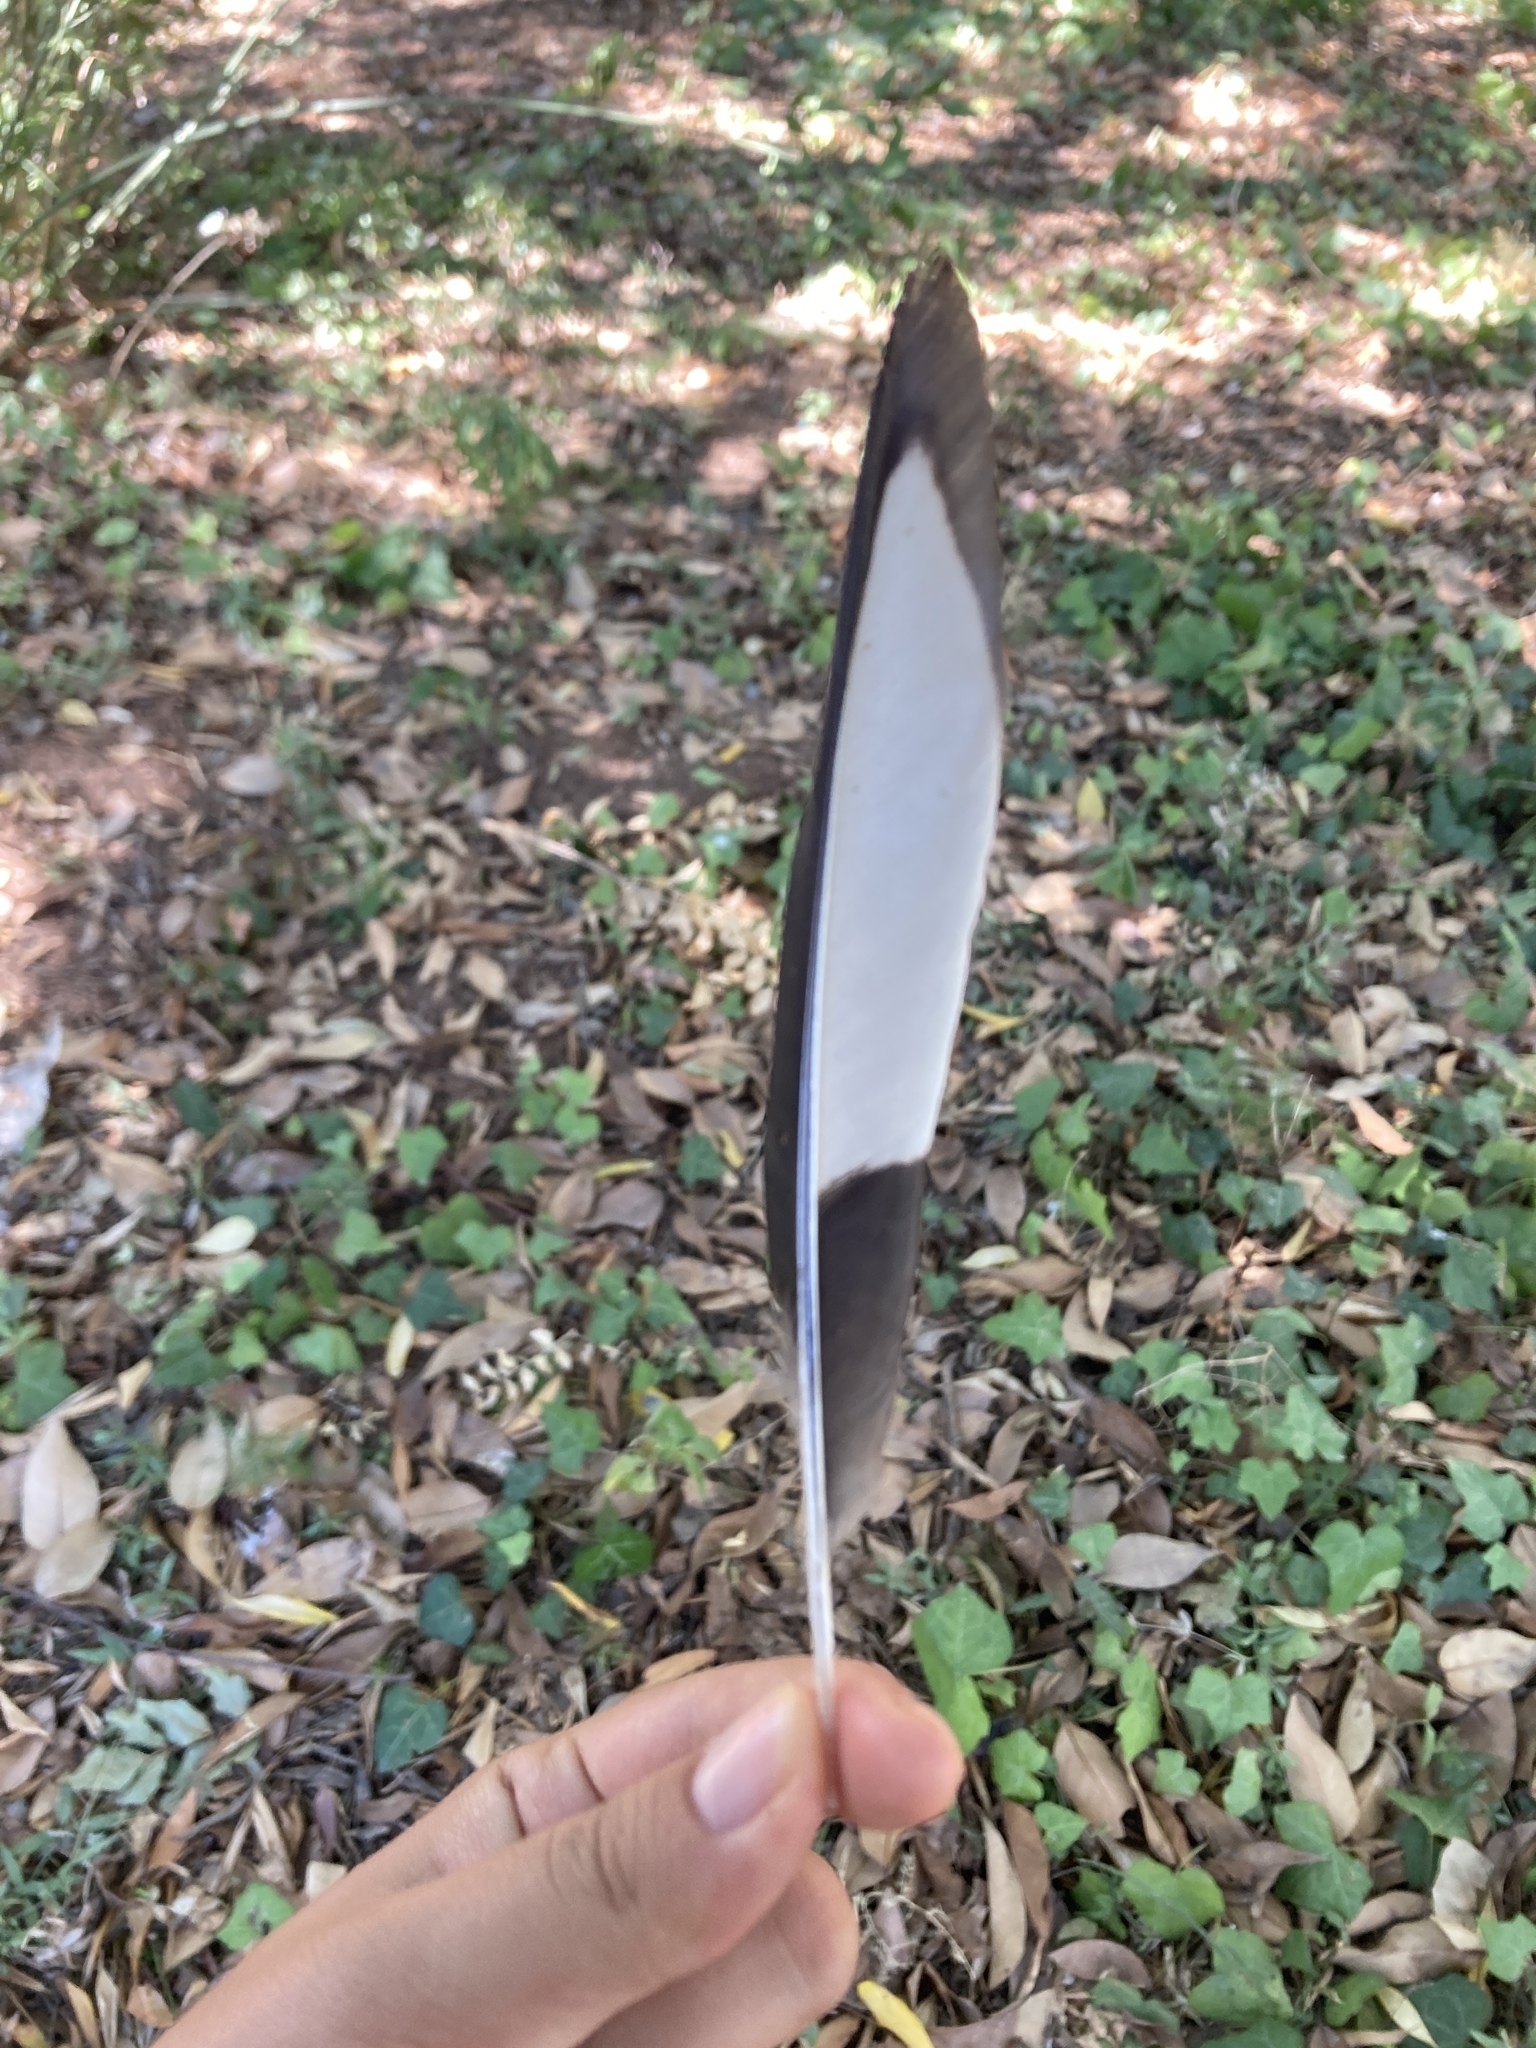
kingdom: Animalia
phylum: Chordata
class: Aves
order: Passeriformes
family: Corvidae
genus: Pica
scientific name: Pica pica
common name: Eurasian magpie
